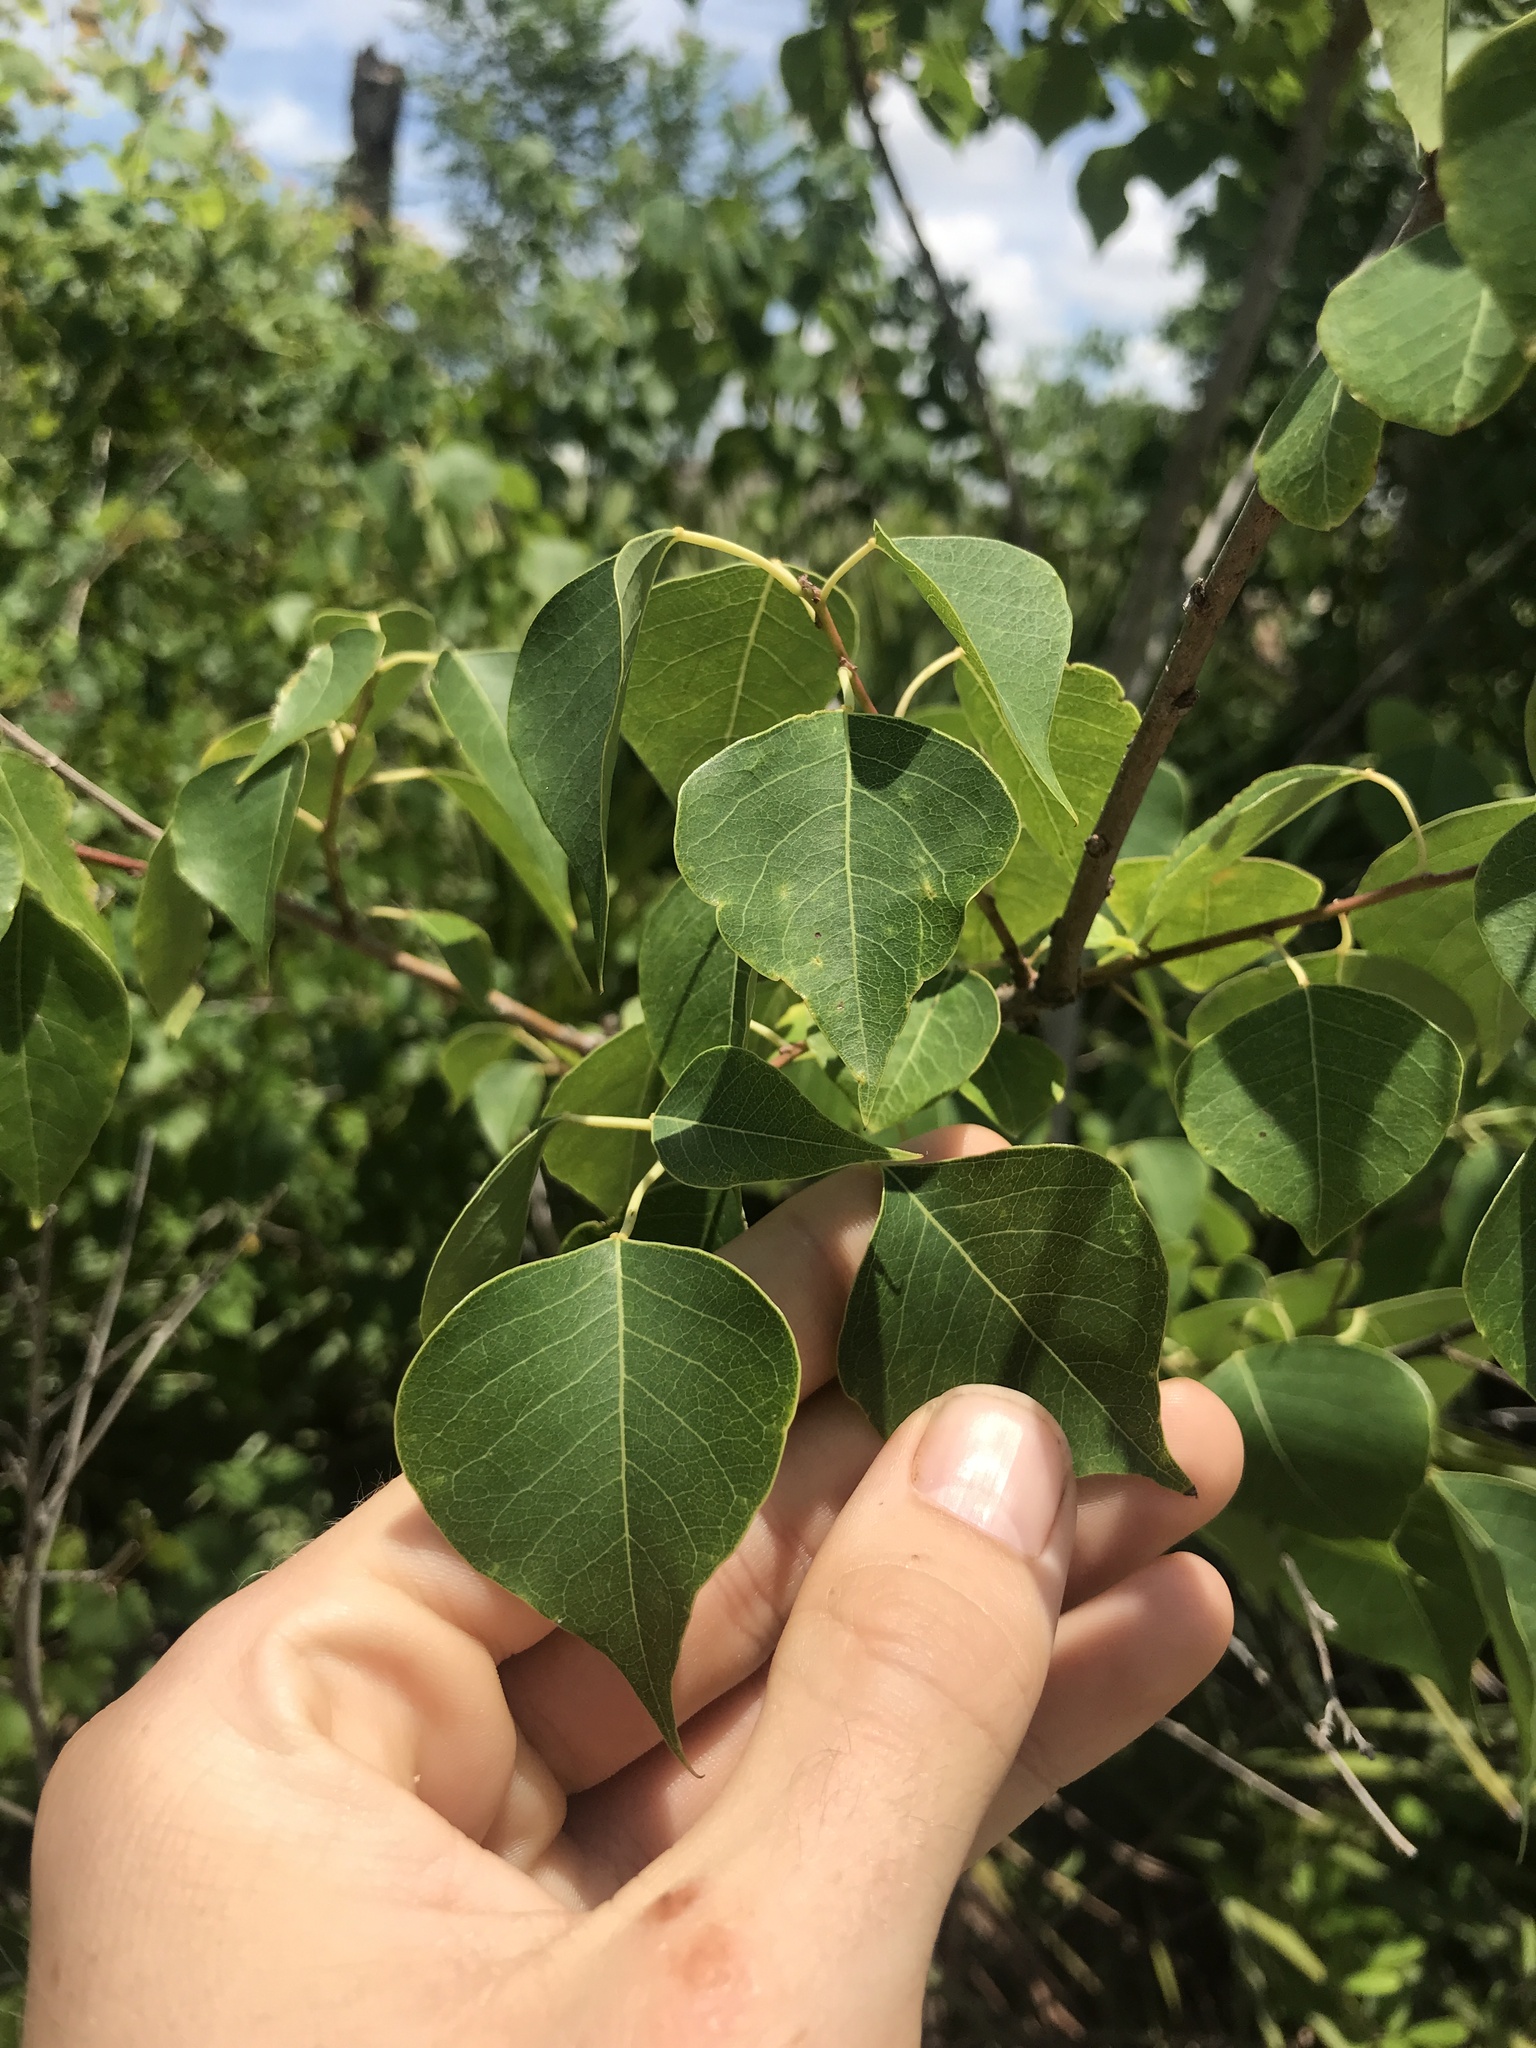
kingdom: Plantae
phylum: Tracheophyta
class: Magnoliopsida
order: Malpighiales
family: Euphorbiaceae
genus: Triadica
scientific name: Triadica sebifera
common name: Chinese tallow
